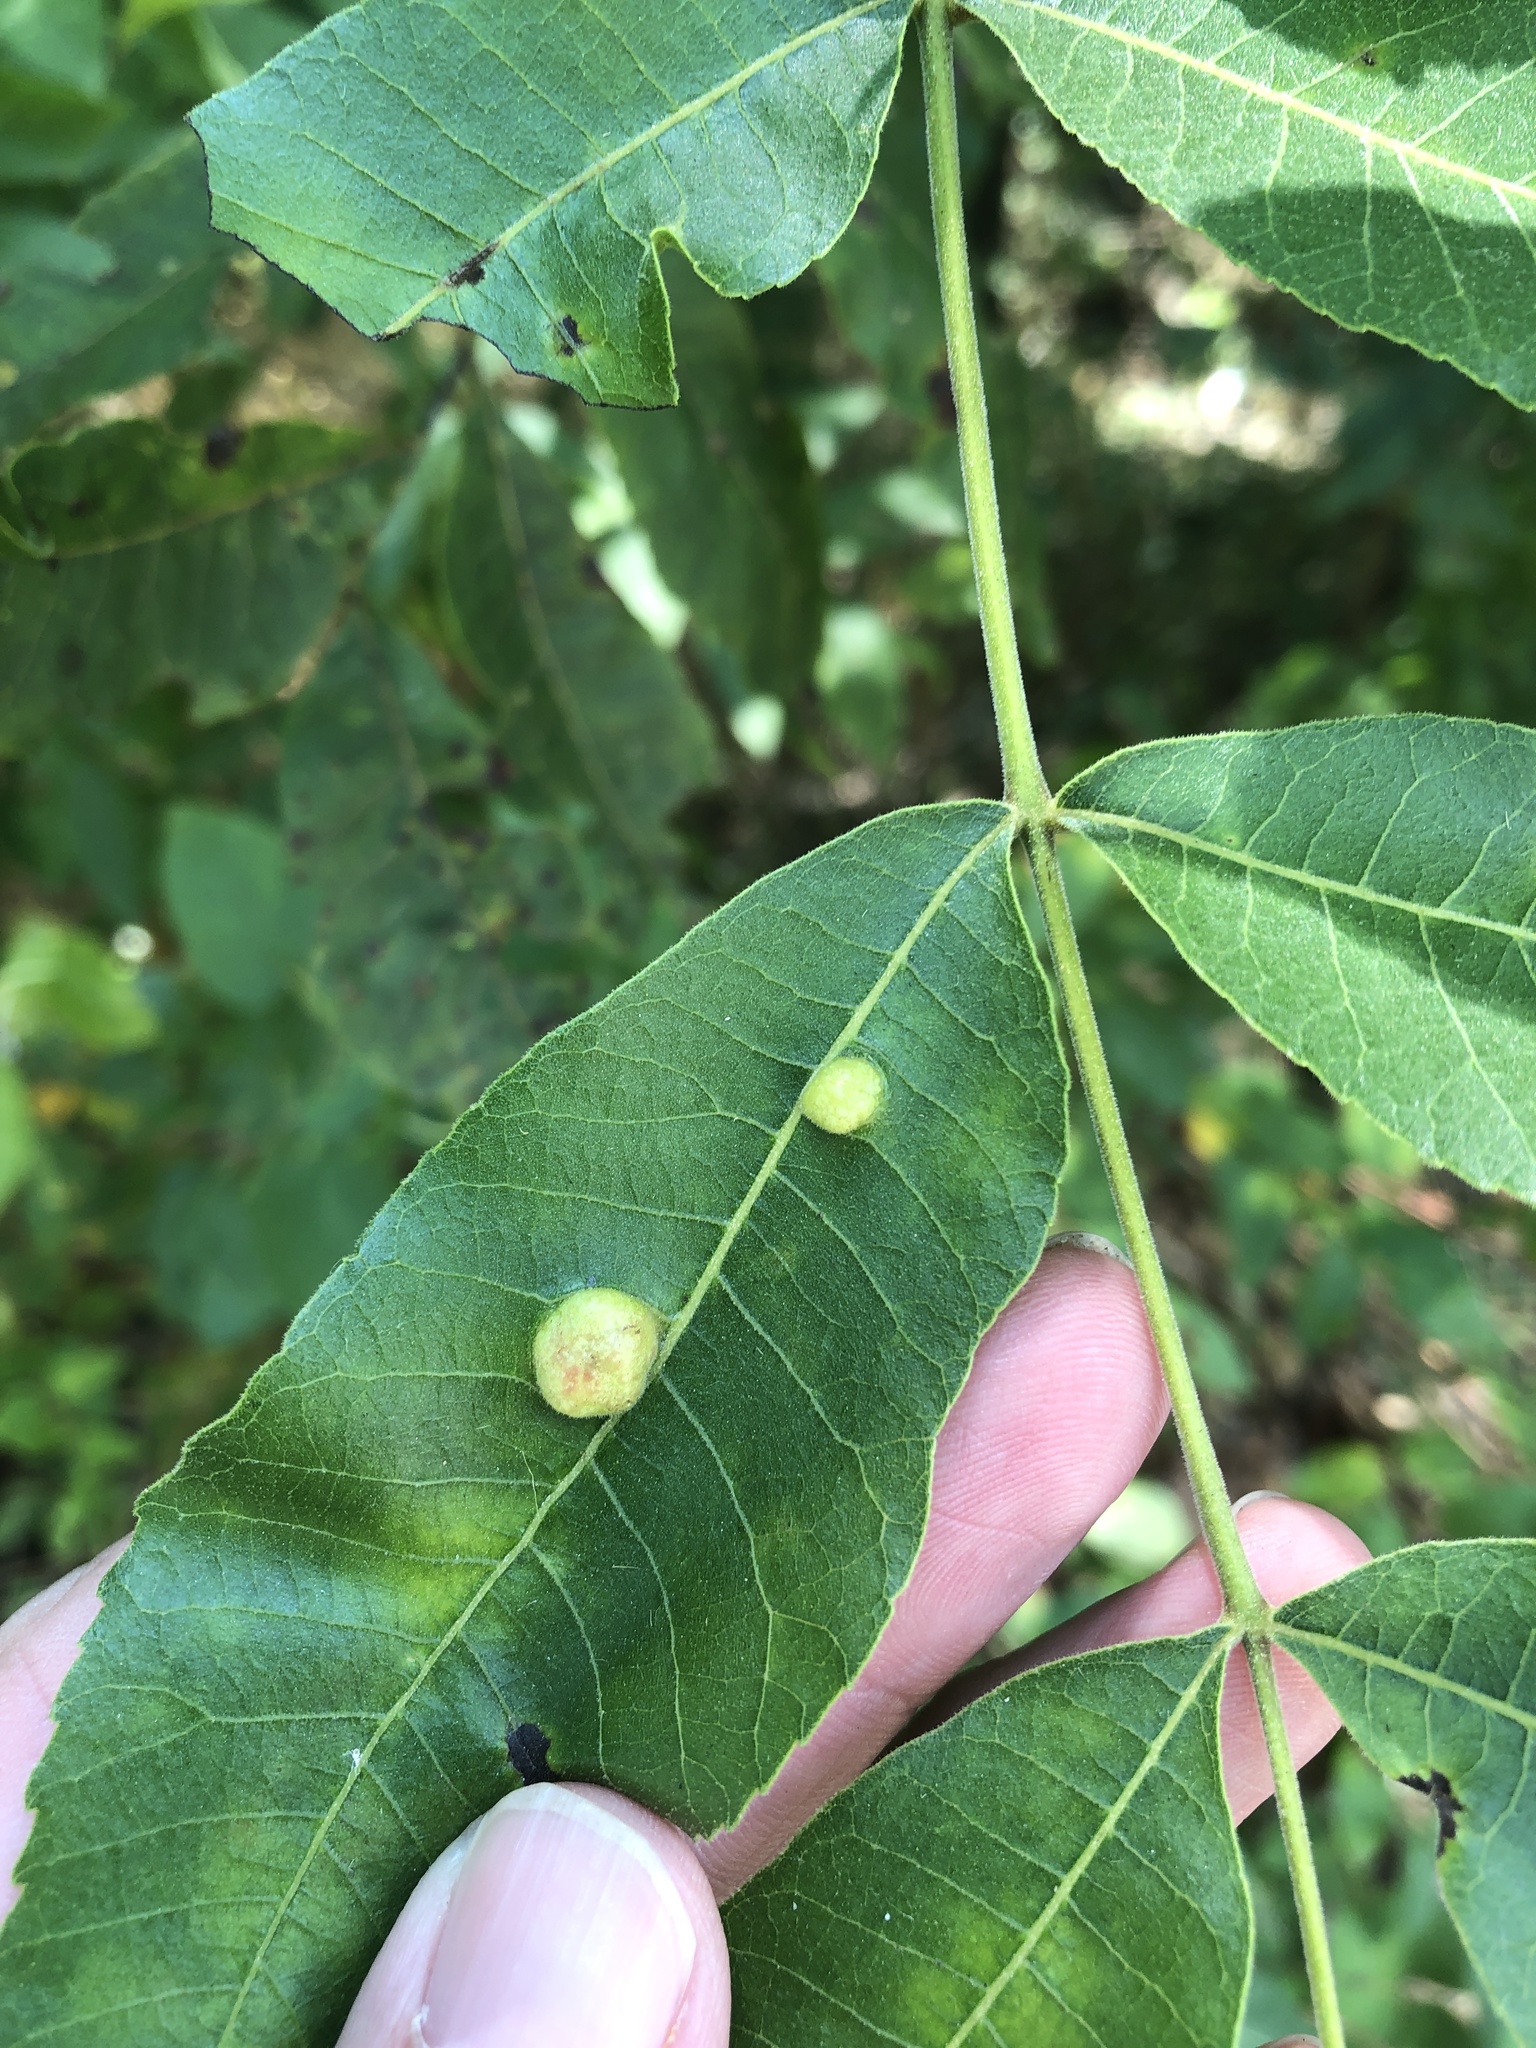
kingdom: Animalia
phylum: Arthropoda
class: Insecta
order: Hemiptera
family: Phylloxeridae
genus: Daktulosphaira
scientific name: Daktulosphaira notabilis
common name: Pecan leaf phylloxera
